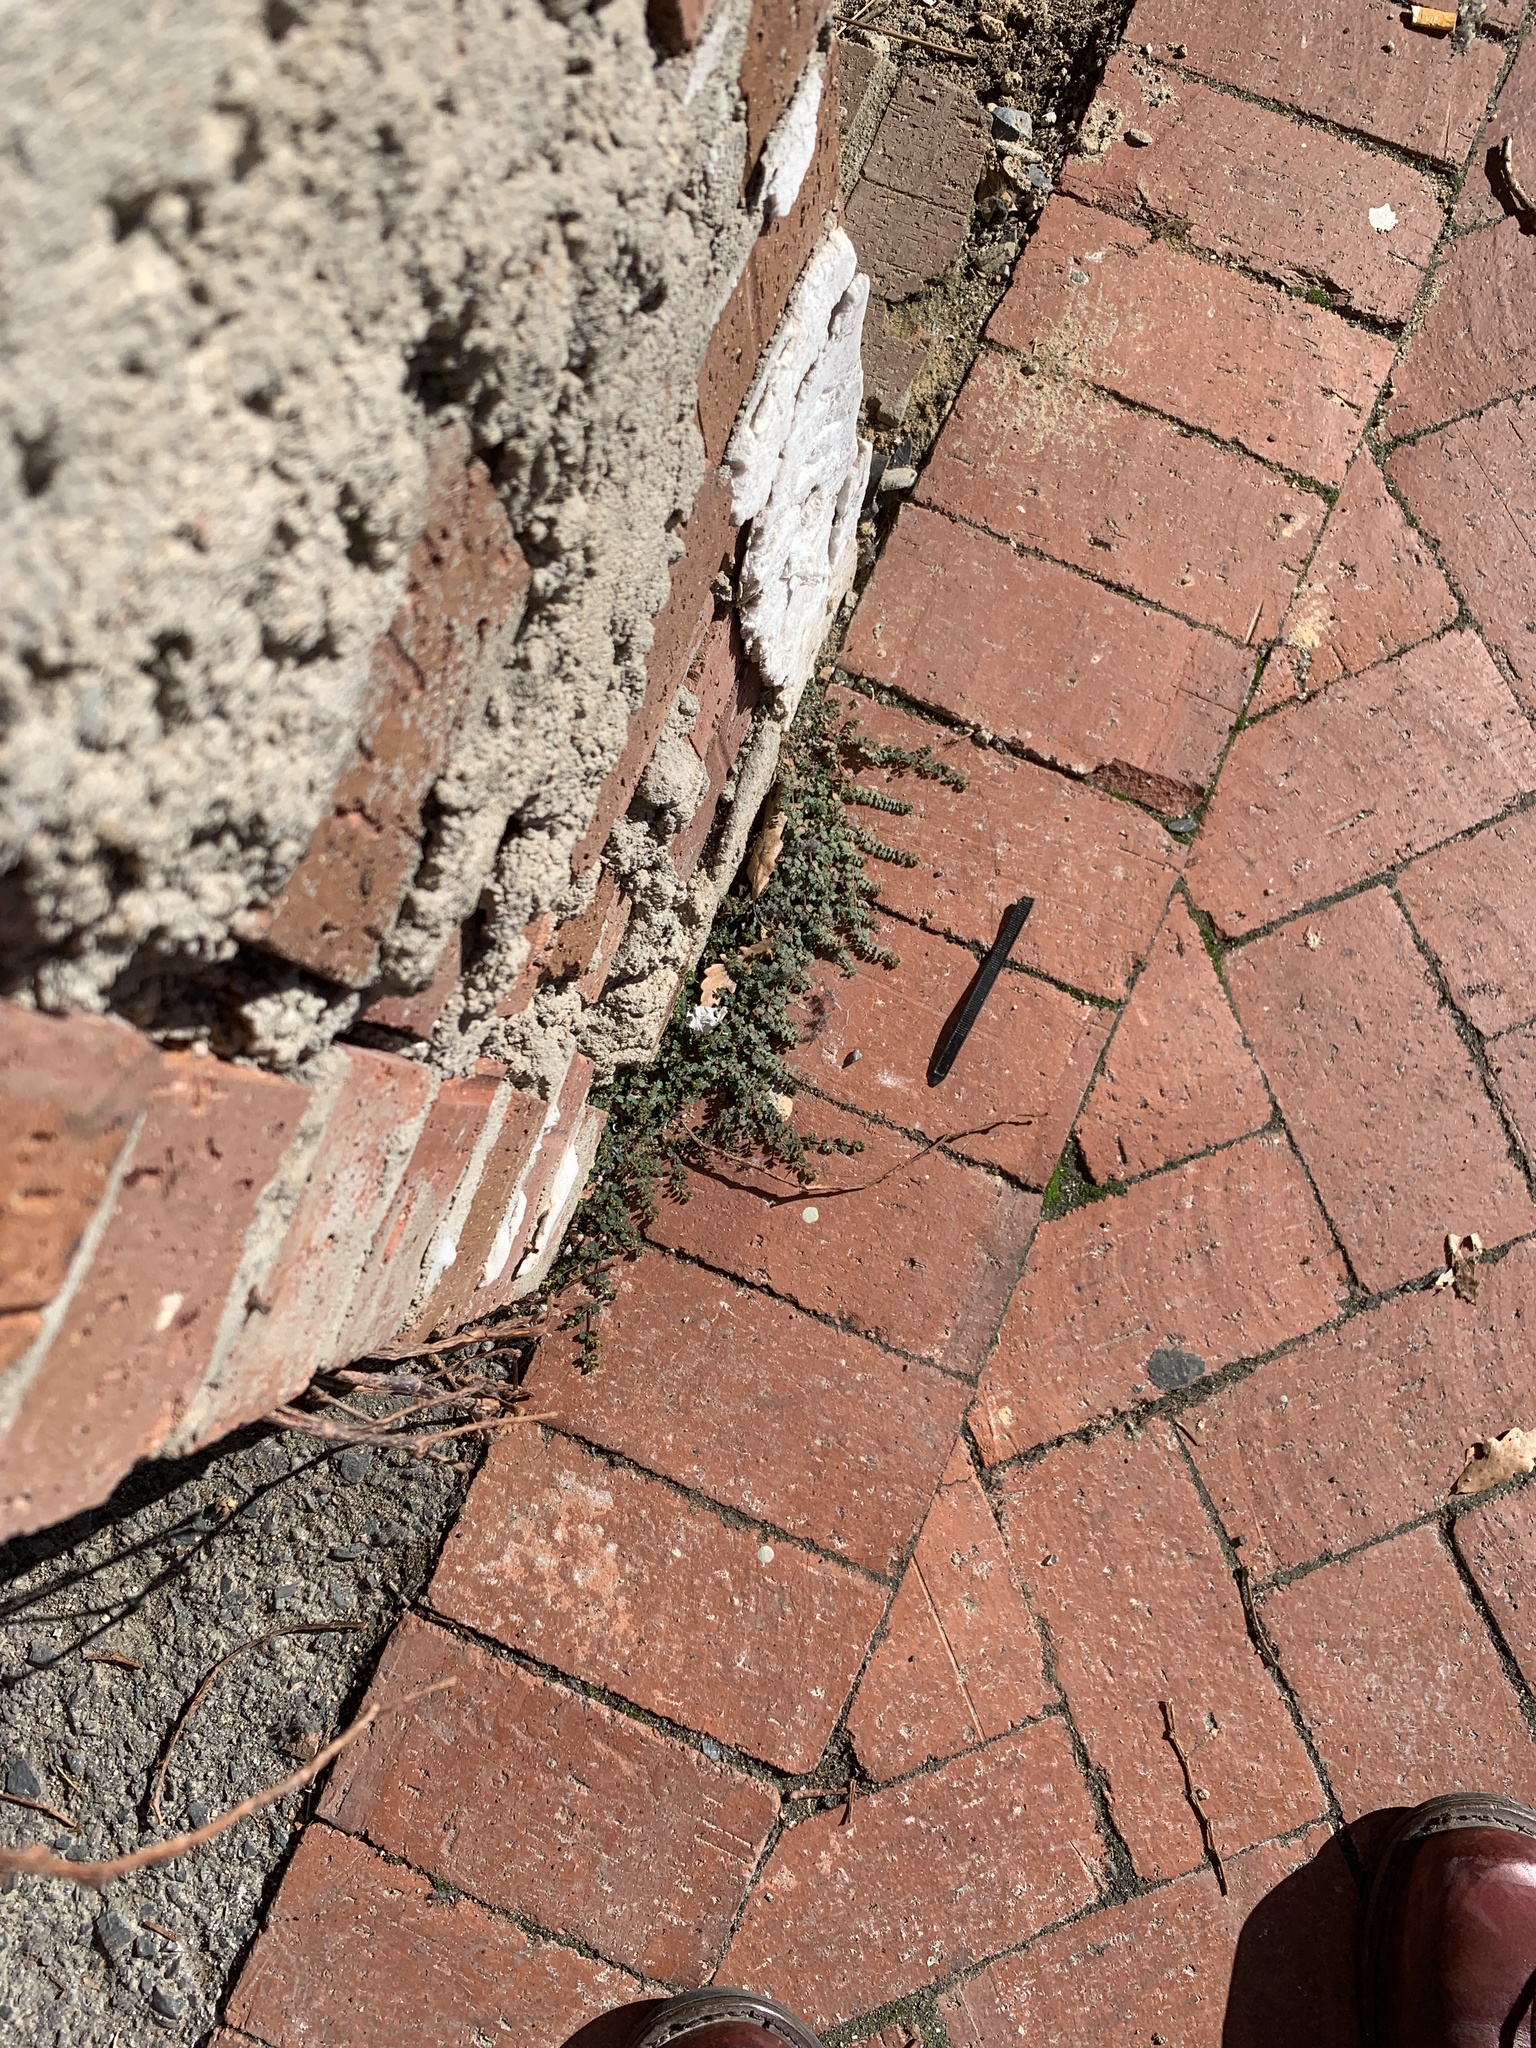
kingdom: Plantae
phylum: Tracheophyta
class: Magnoliopsida
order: Malpighiales
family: Euphorbiaceae
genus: Euphorbia
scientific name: Euphorbia serpens
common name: Matted sandmat
